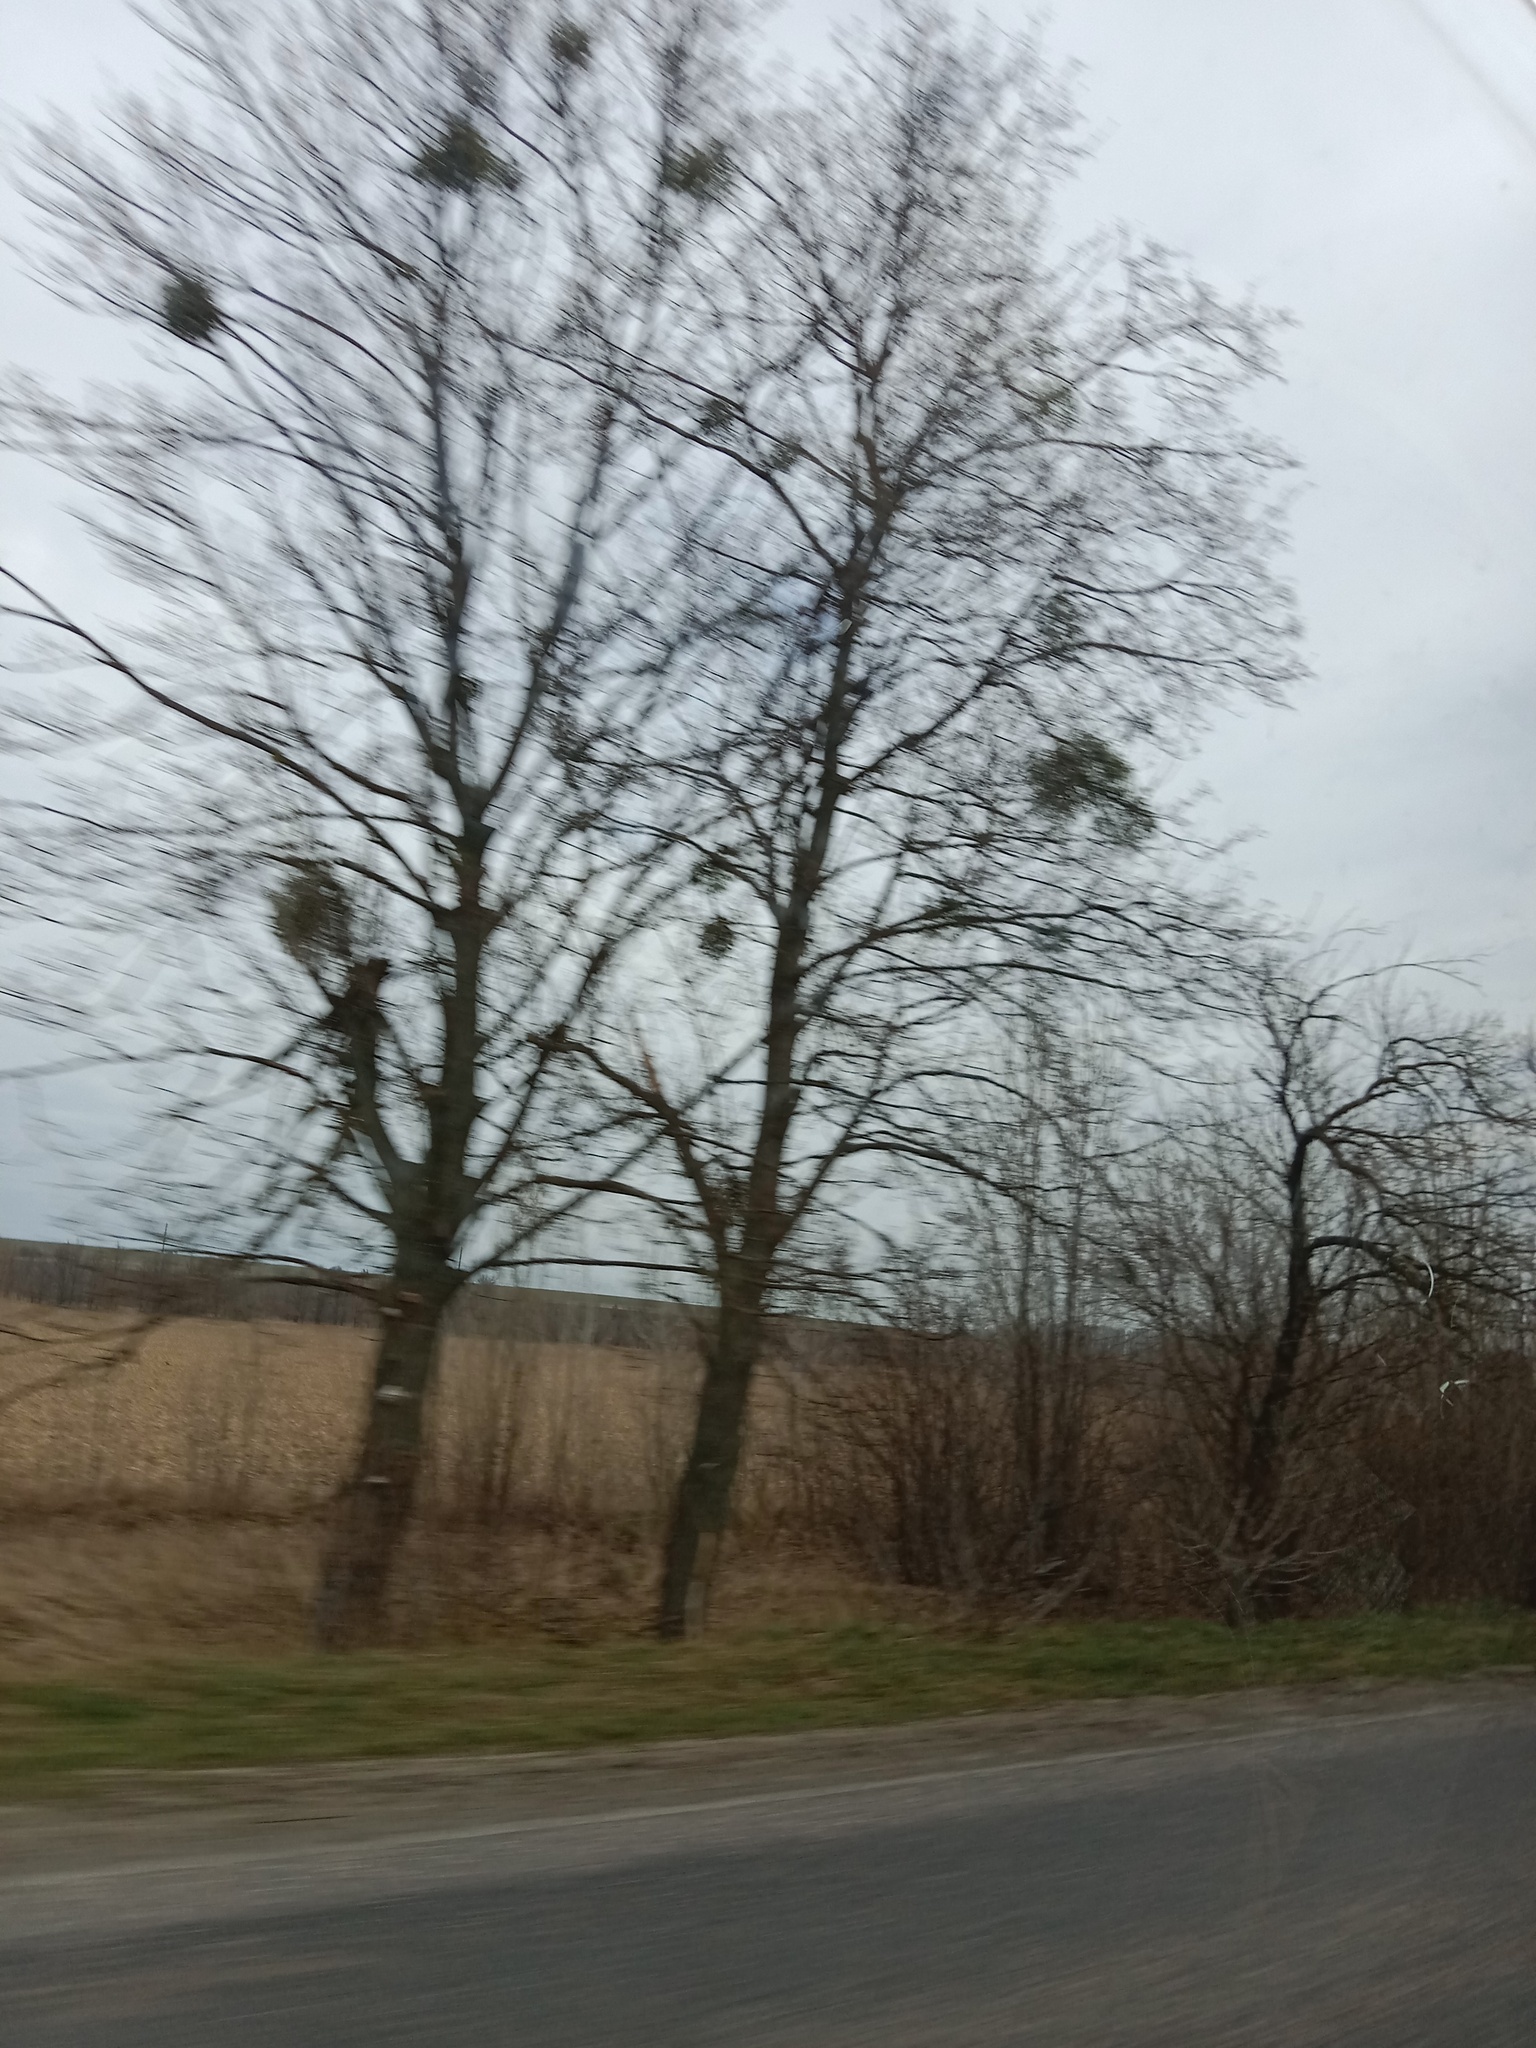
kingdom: Plantae
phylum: Tracheophyta
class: Magnoliopsida
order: Santalales
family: Viscaceae
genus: Viscum
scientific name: Viscum album
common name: Mistletoe
